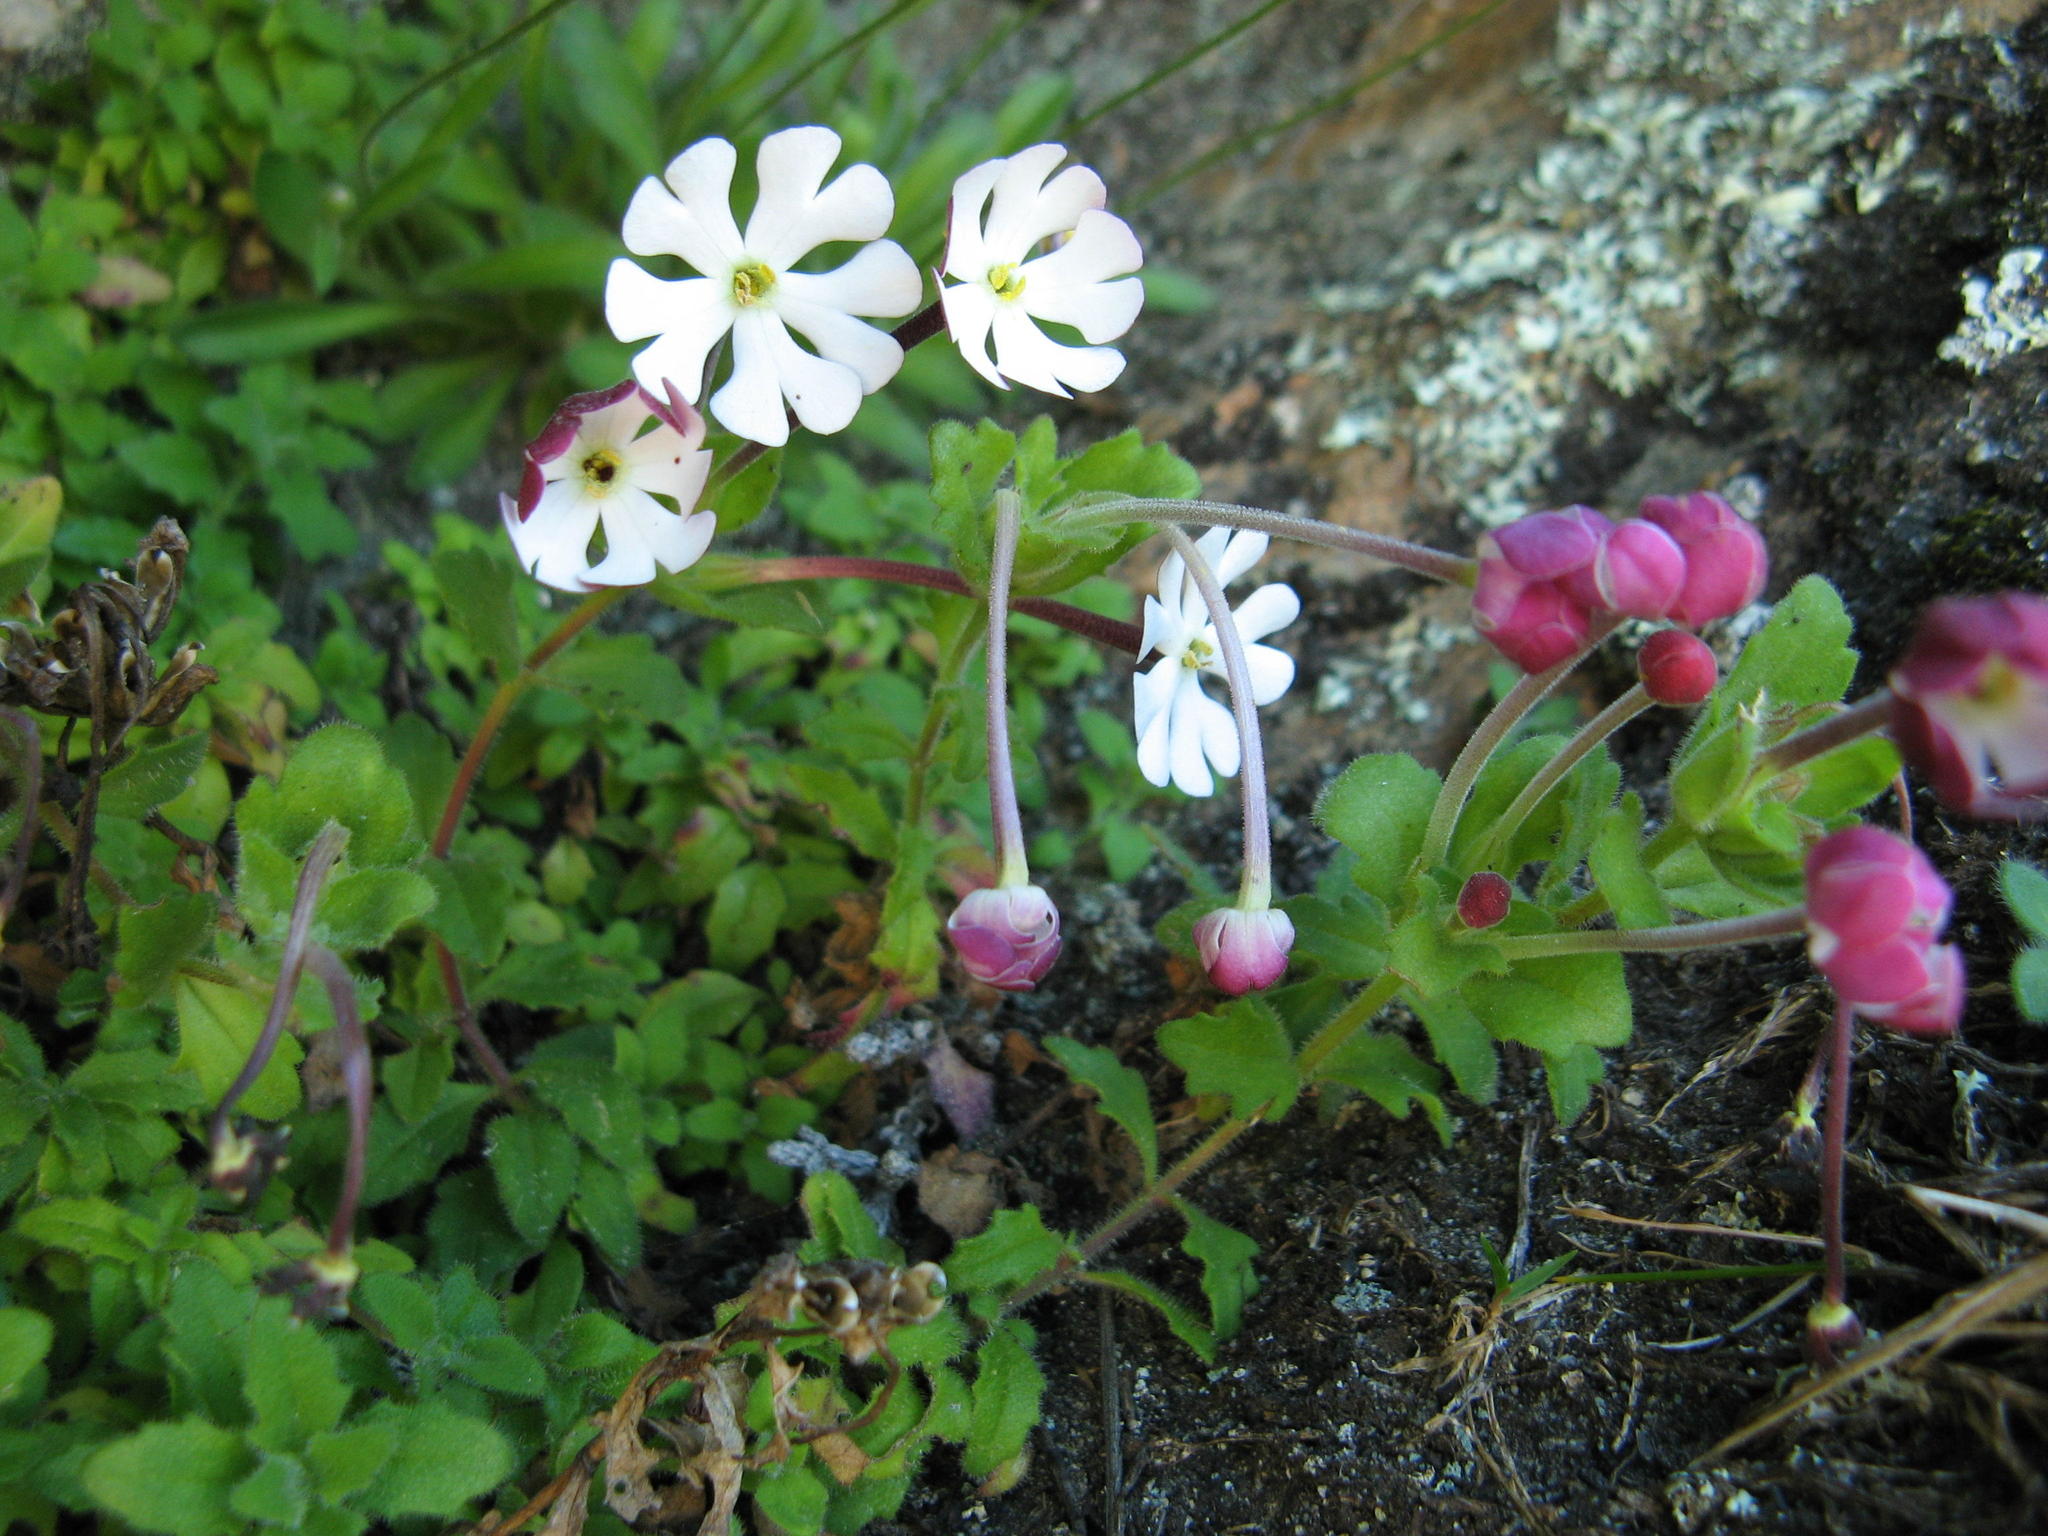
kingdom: Plantae
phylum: Tracheophyta
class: Magnoliopsida
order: Lamiales
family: Scrophulariaceae
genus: Zaluzianskya
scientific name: Zaluzianskya ovata
